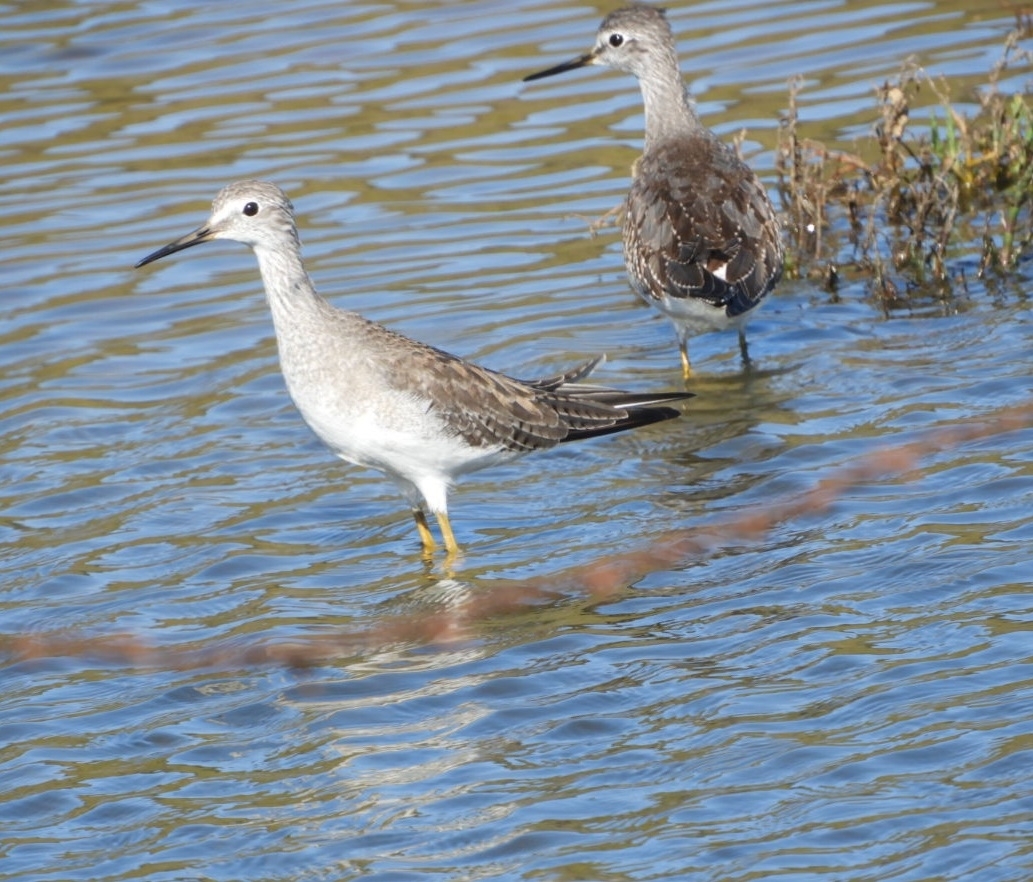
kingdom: Animalia
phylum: Chordata
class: Aves
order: Charadriiformes
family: Scolopacidae
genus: Tringa
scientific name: Tringa flavipes
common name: Lesser yellowlegs
